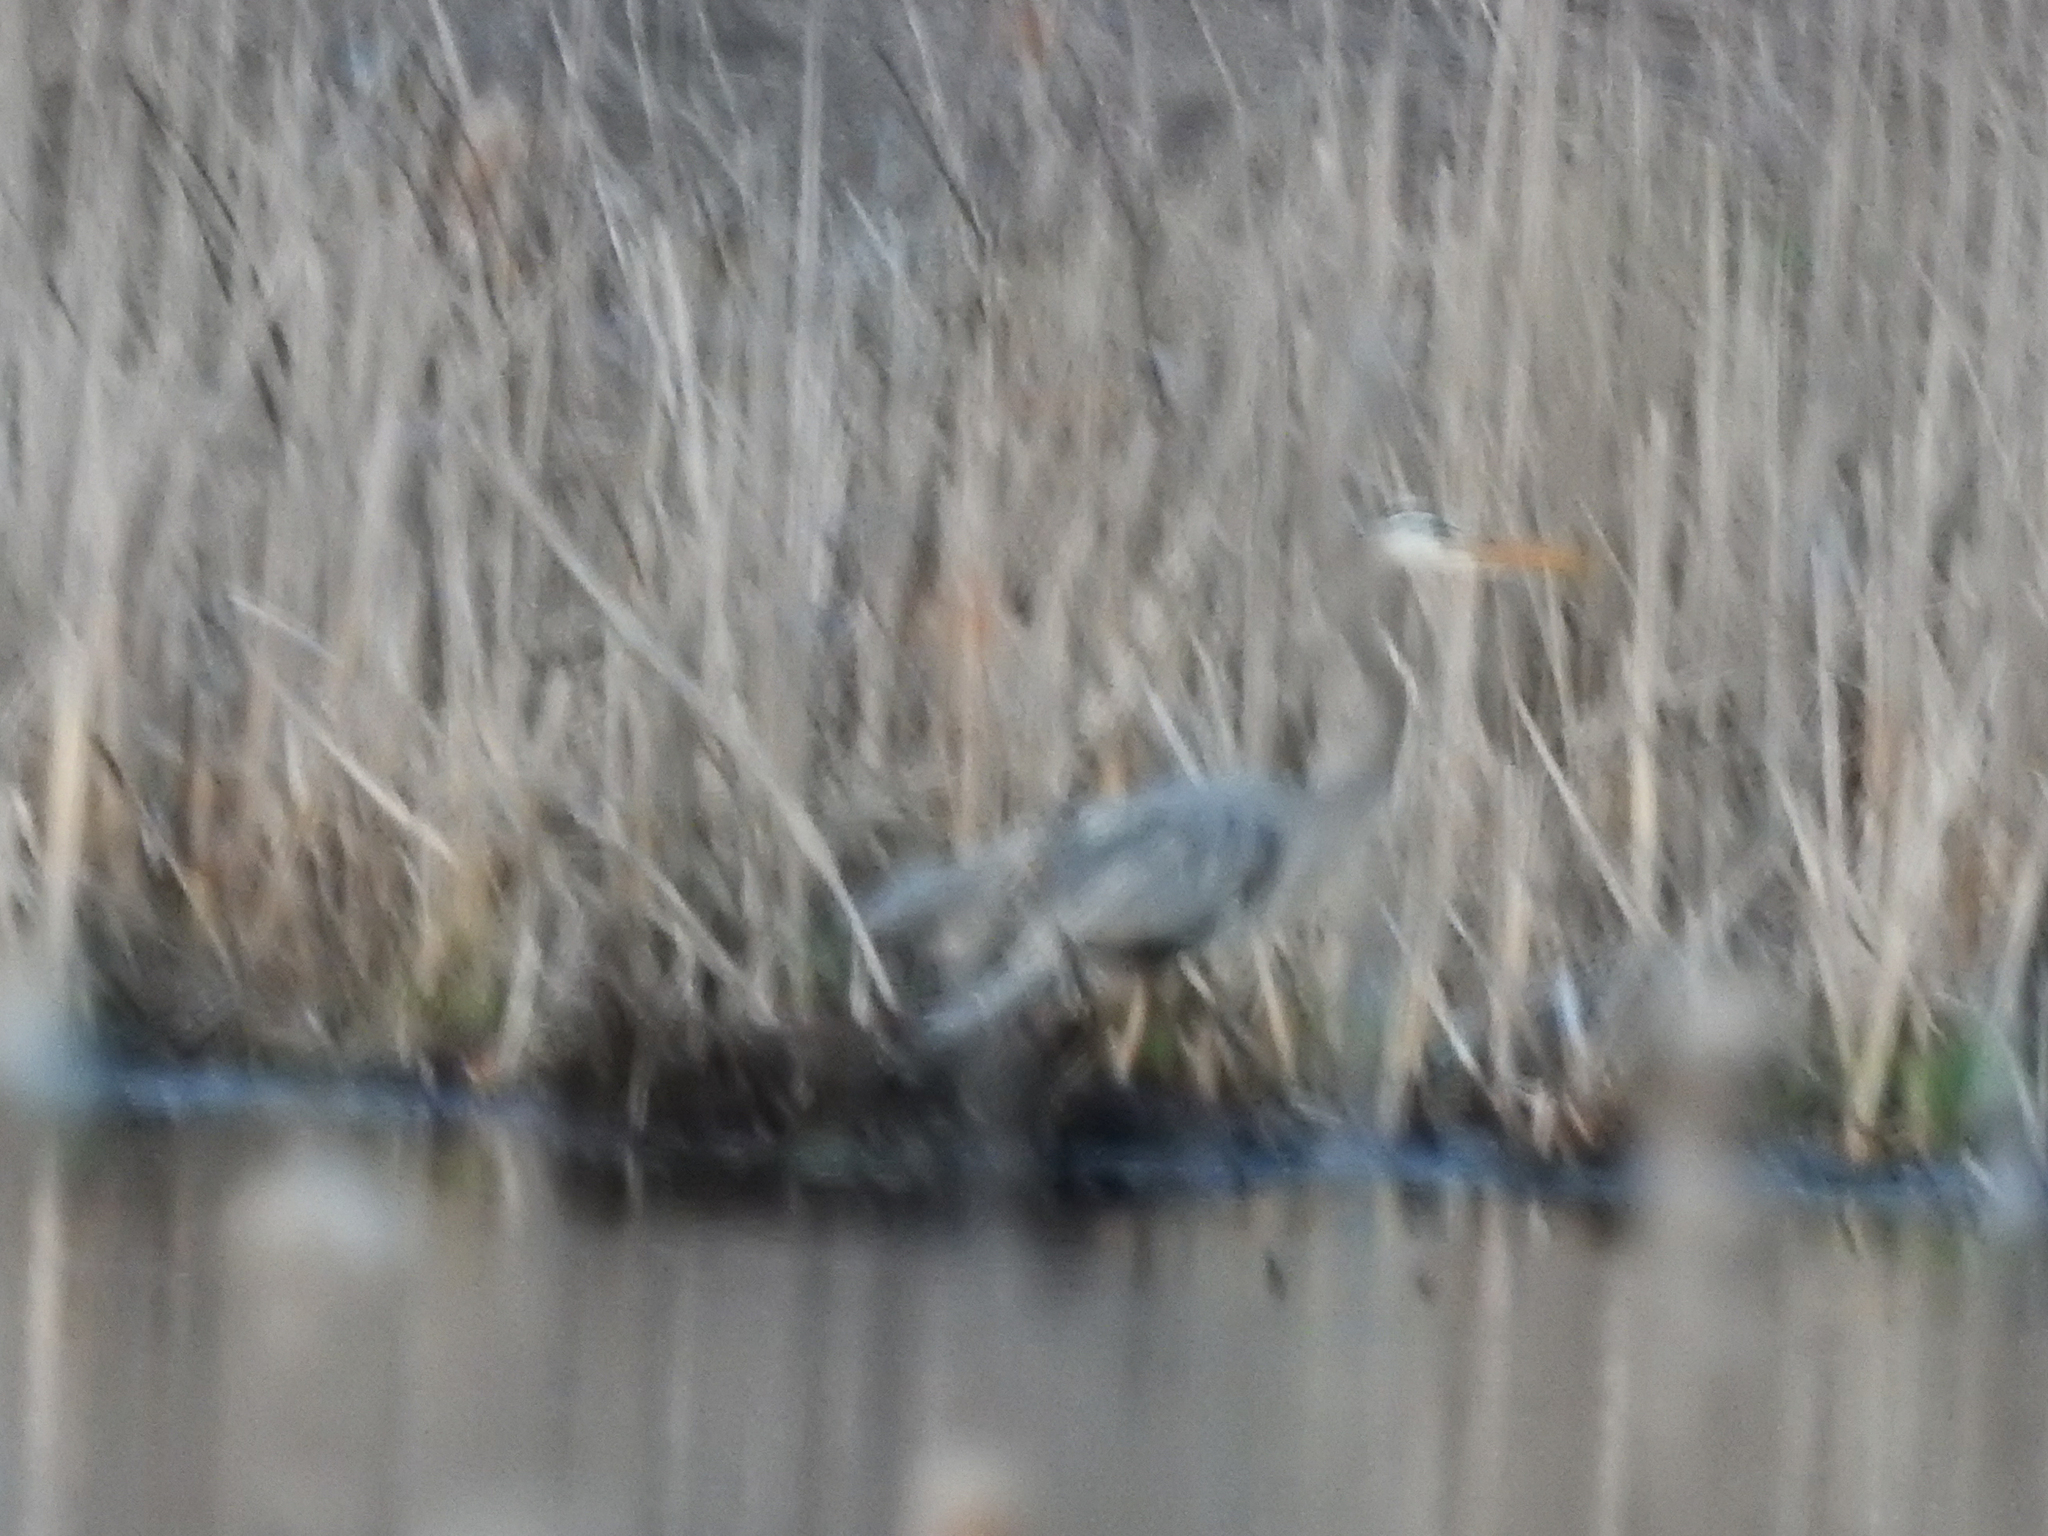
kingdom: Animalia
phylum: Chordata
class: Aves
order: Pelecaniformes
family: Ardeidae
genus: Ardea
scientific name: Ardea herodias
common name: Great blue heron
